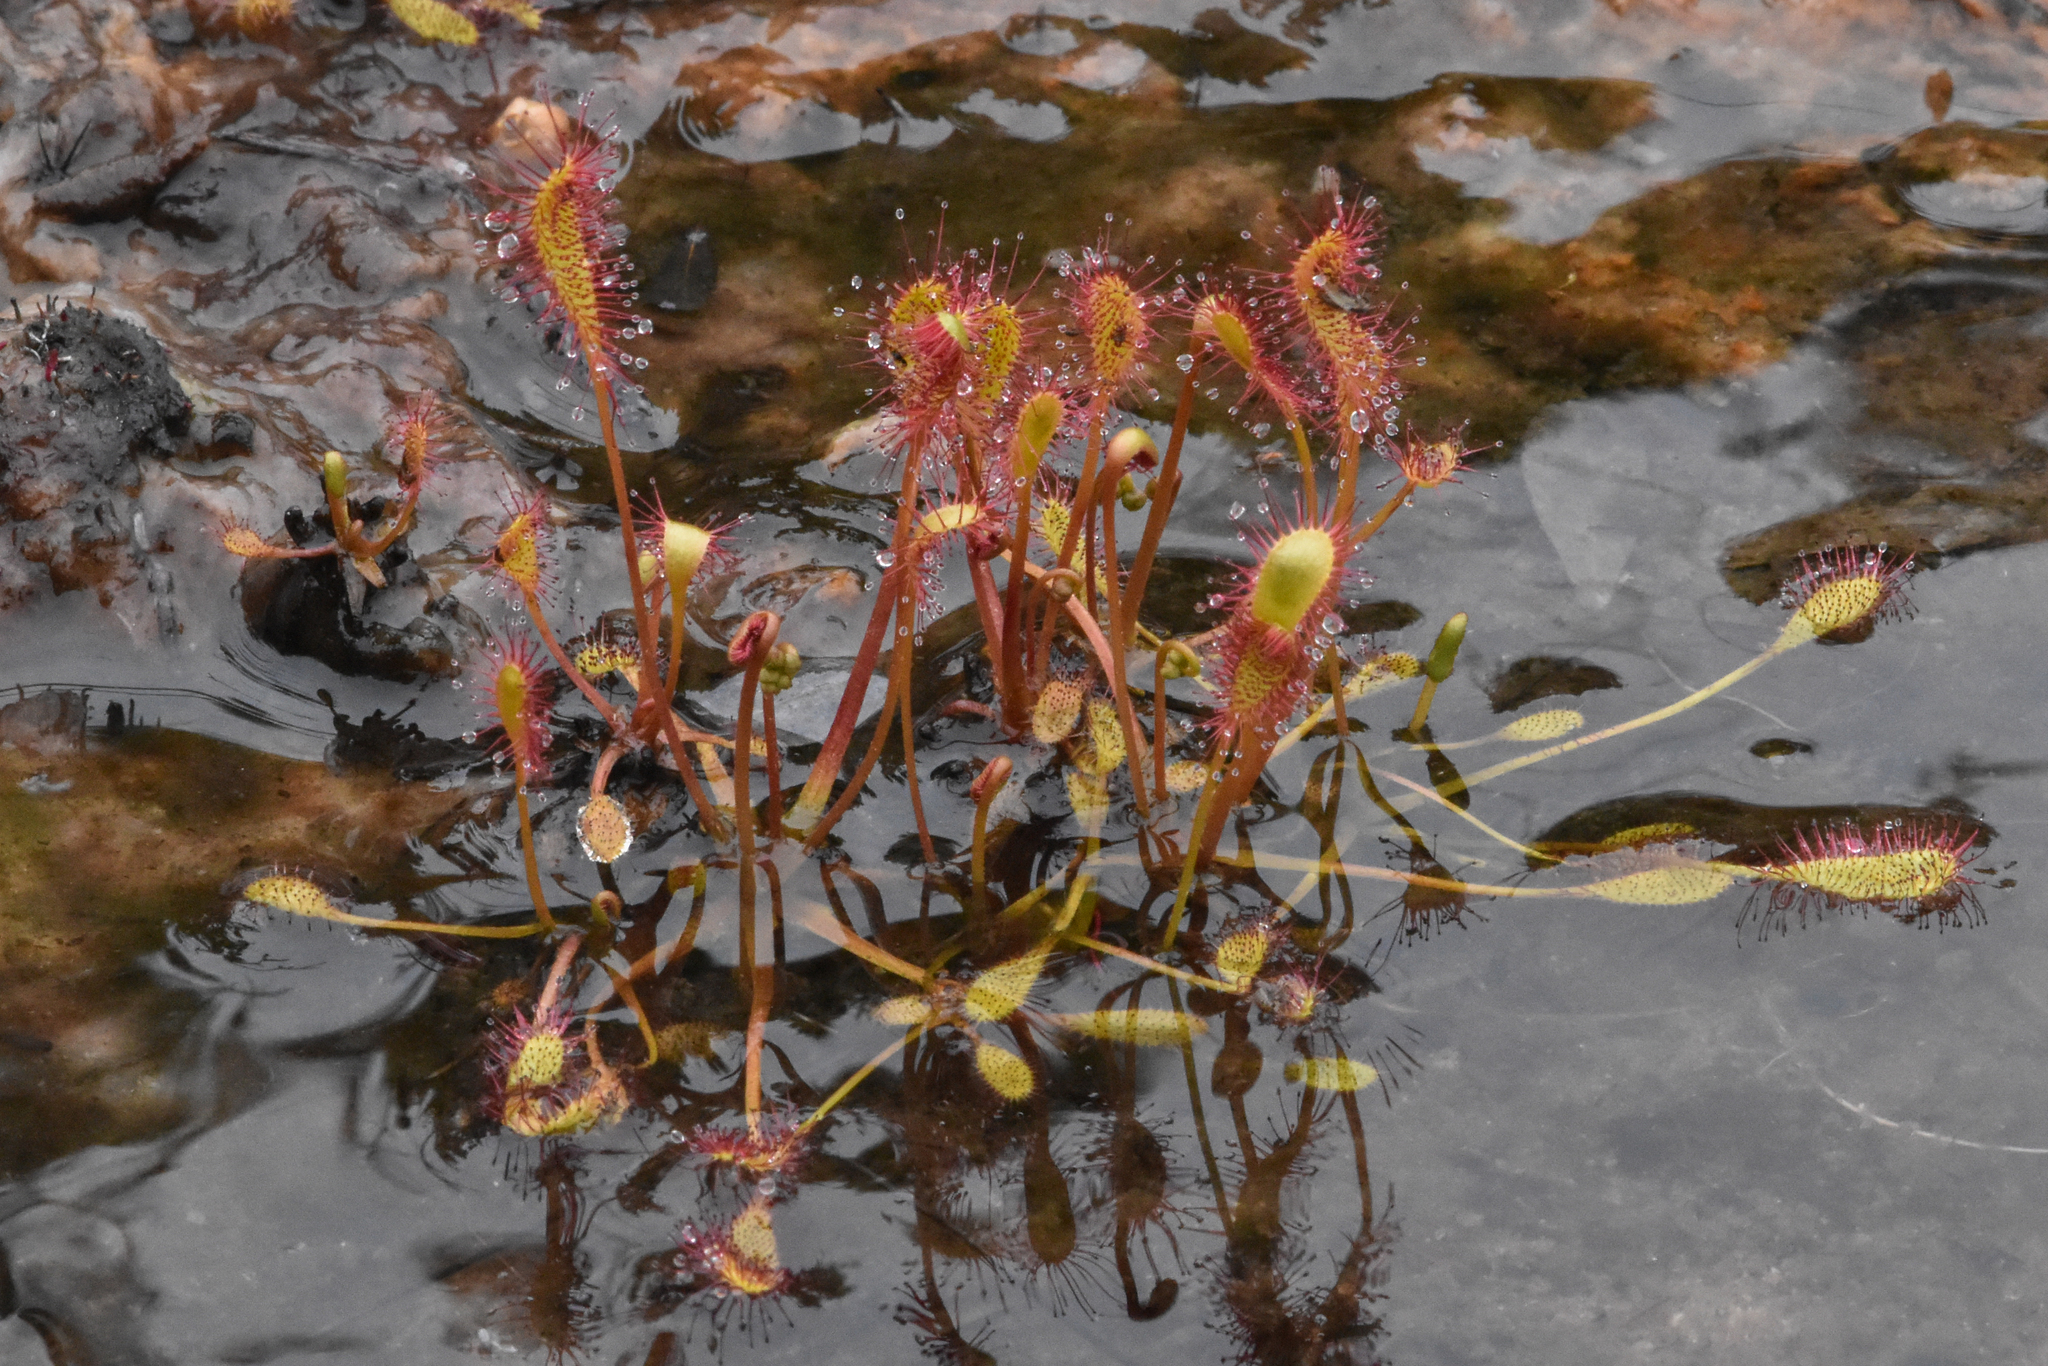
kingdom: Plantae
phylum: Tracheophyta
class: Magnoliopsida
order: Caryophyllales
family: Droseraceae
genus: Drosera
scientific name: Drosera anglica
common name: Great sundew
